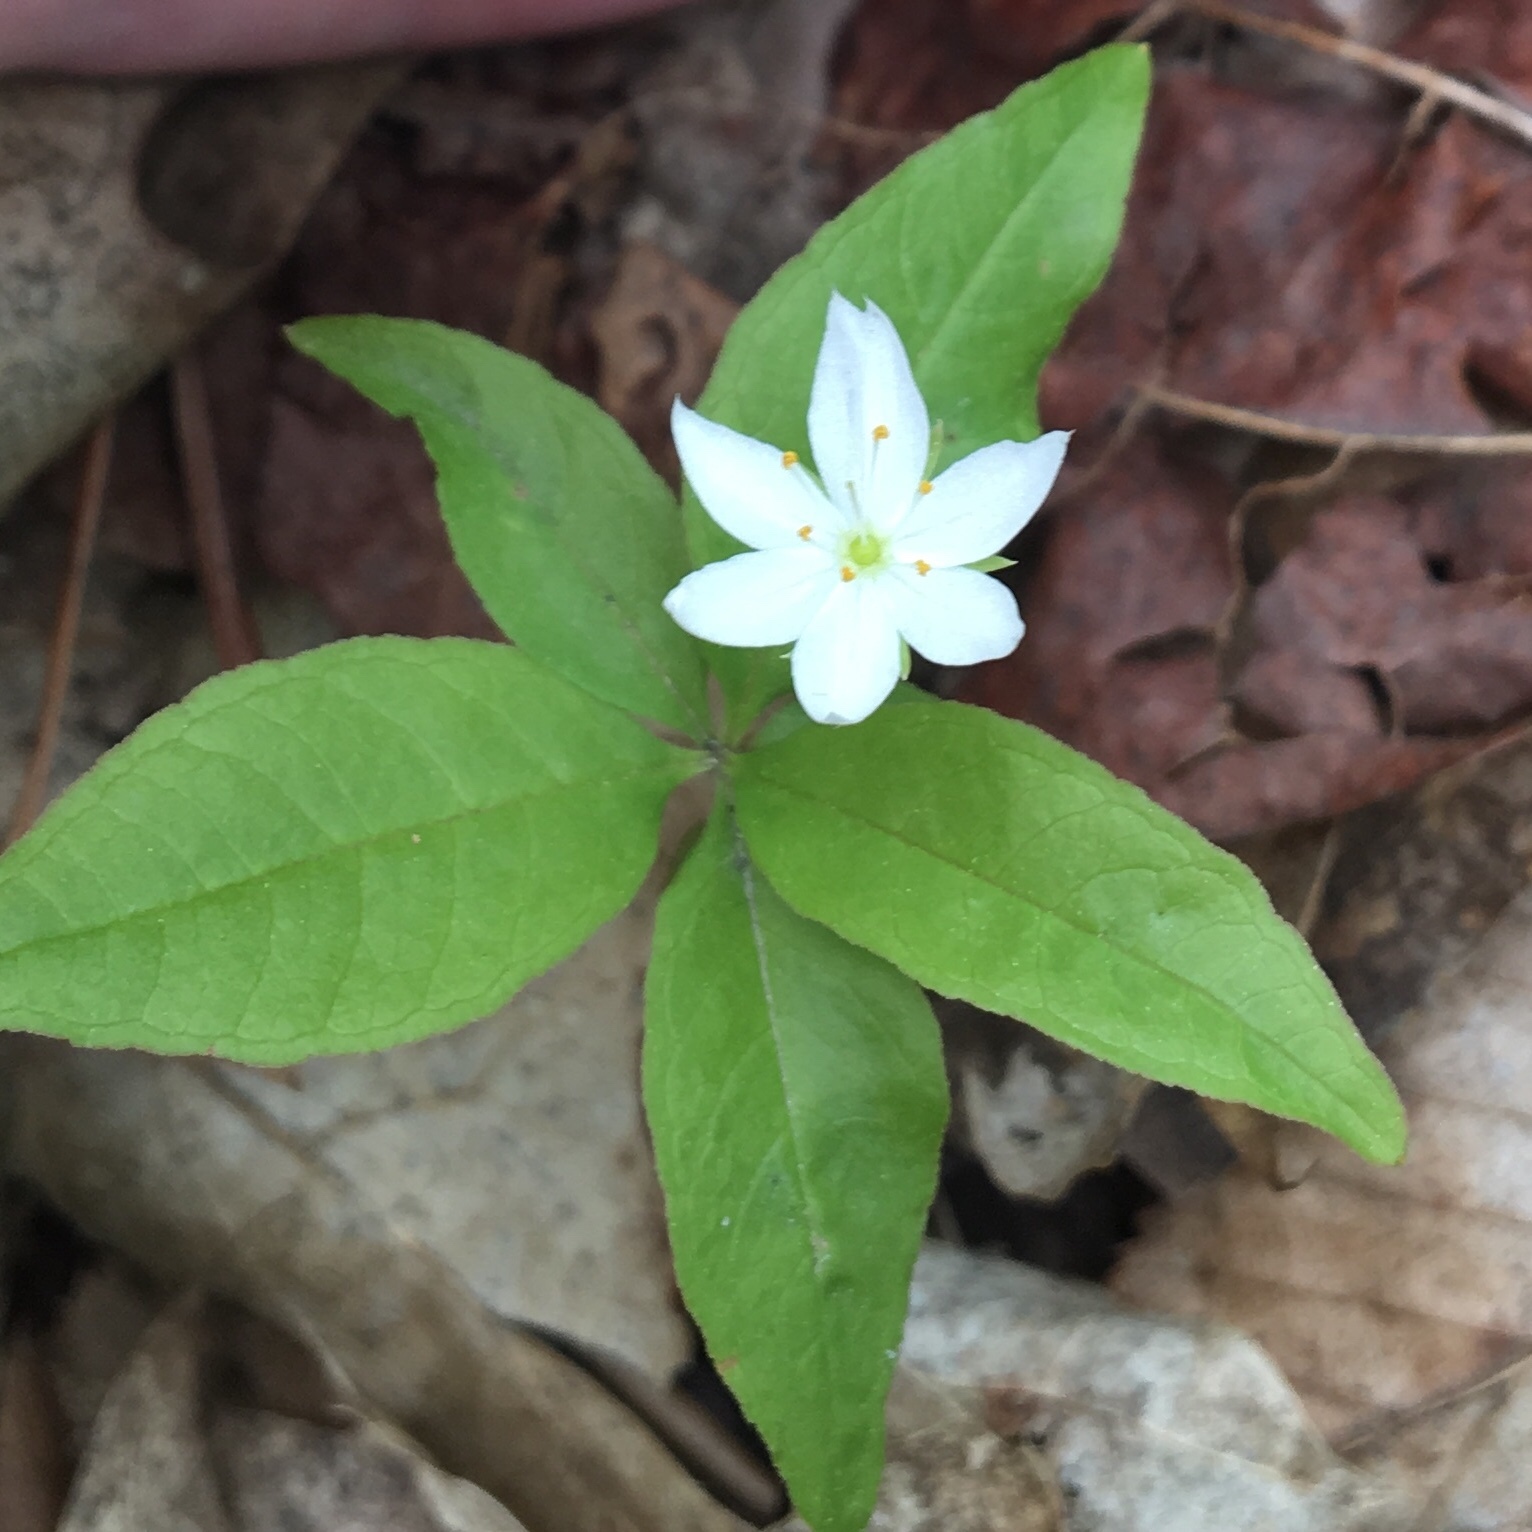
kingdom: Plantae
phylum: Tracheophyta
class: Magnoliopsida
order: Ericales
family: Primulaceae
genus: Lysimachia
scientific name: Lysimachia borealis
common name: American starflower
